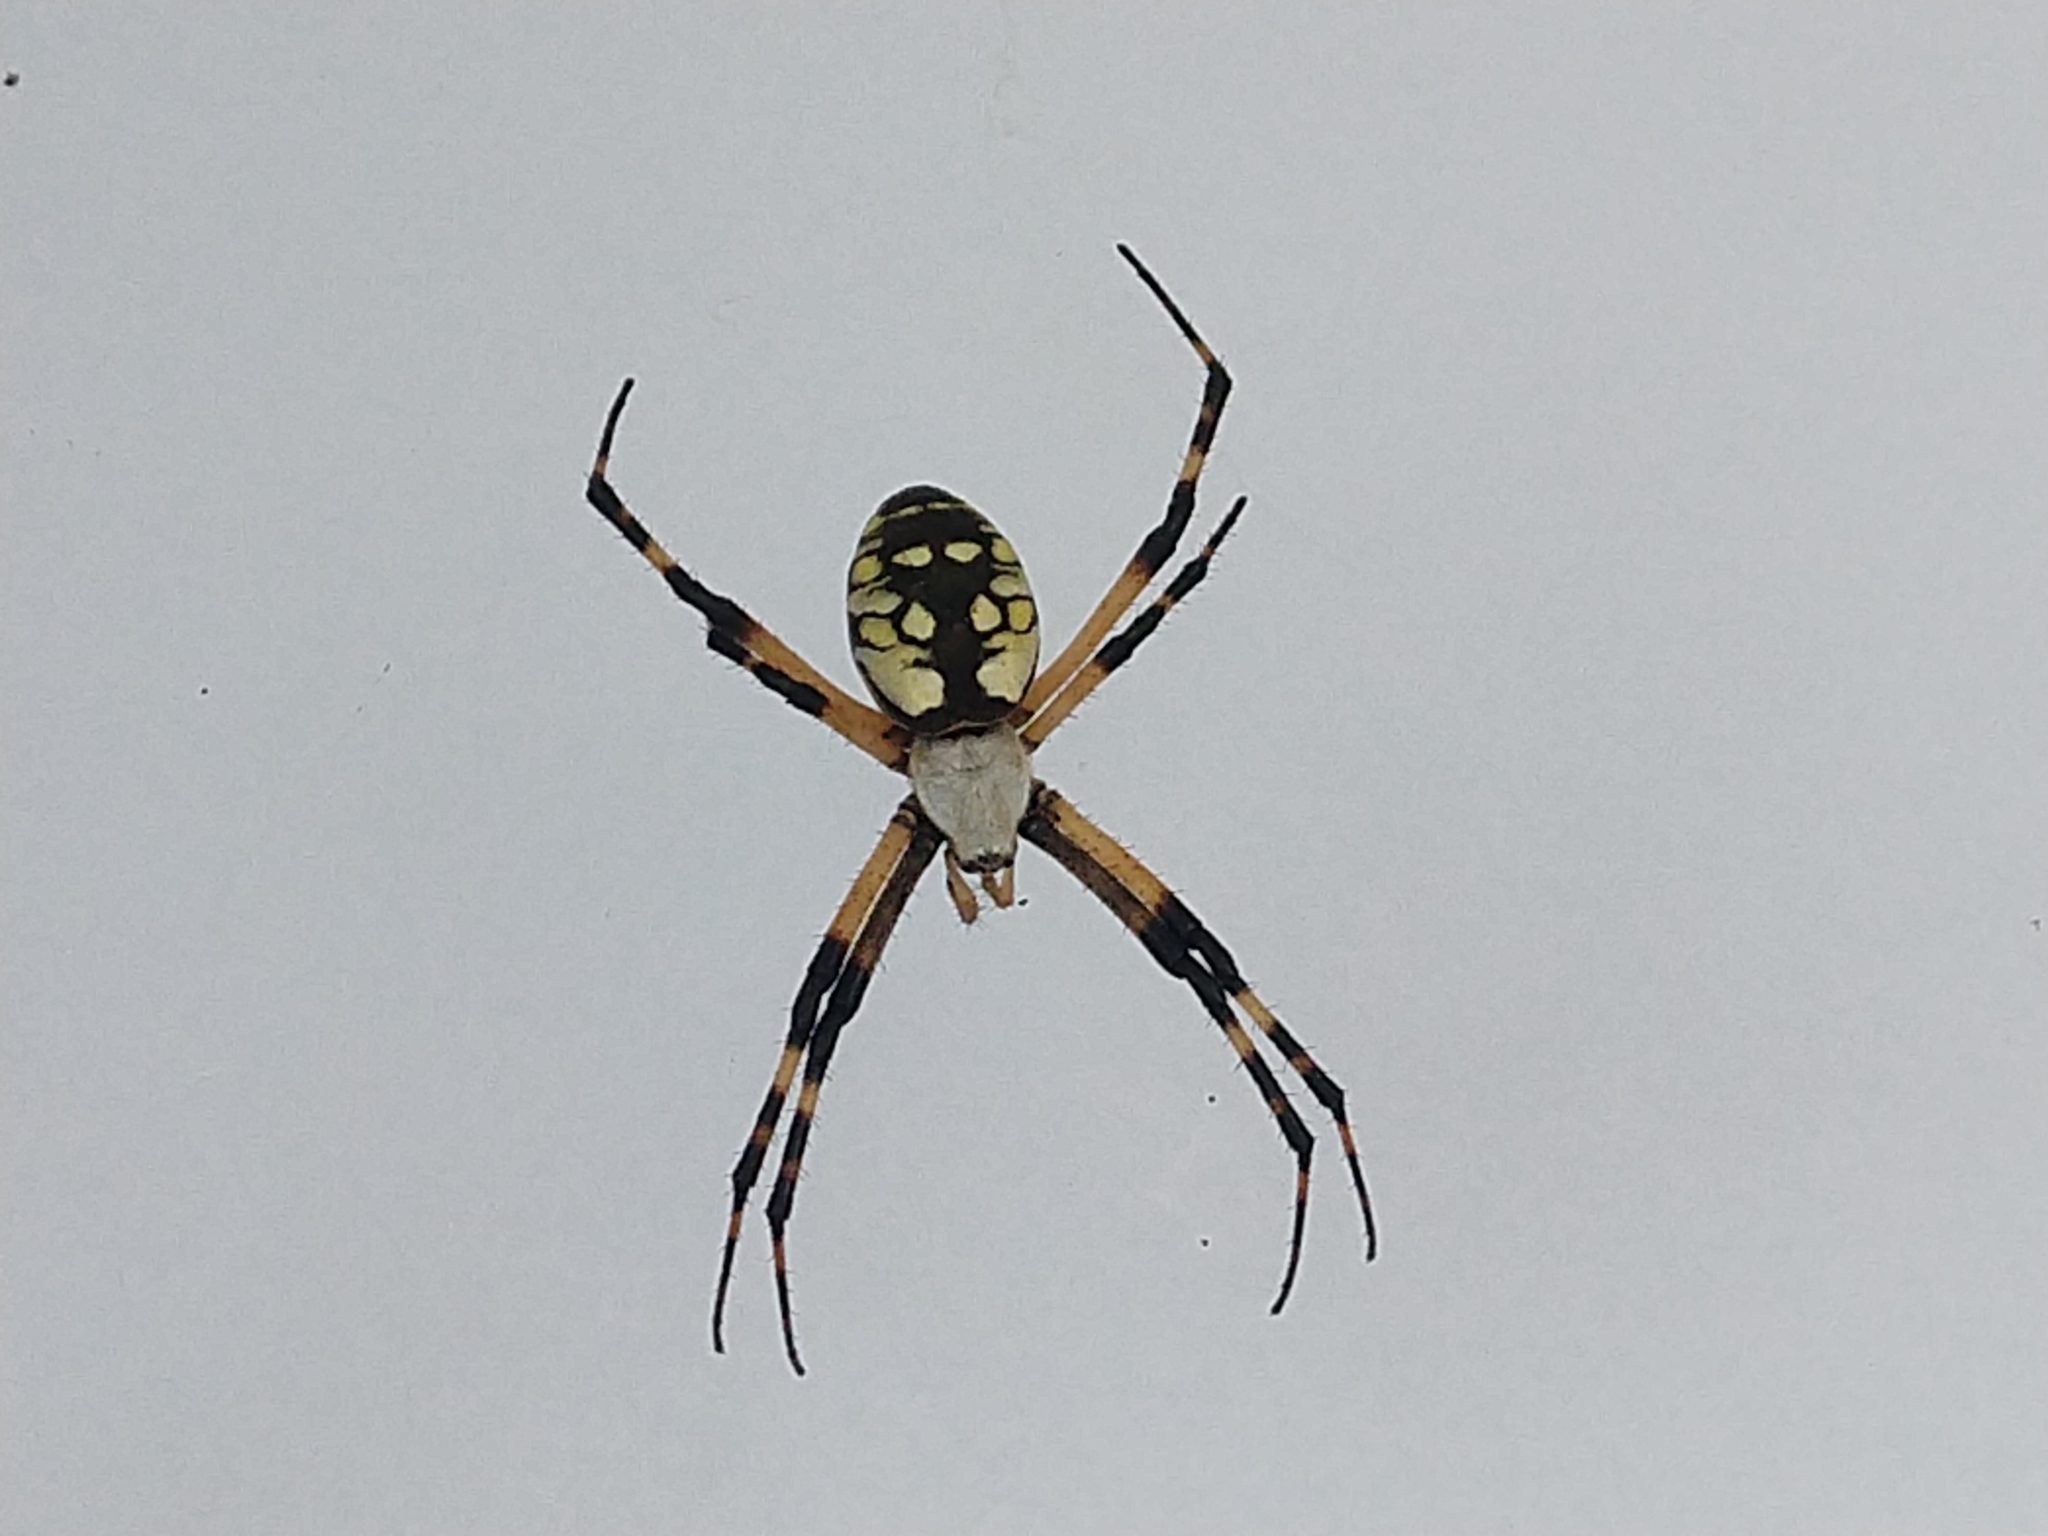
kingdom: Animalia
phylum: Arthropoda
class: Arachnida
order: Araneae
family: Araneidae
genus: Argiope
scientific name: Argiope aurantia
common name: Orb weavers
